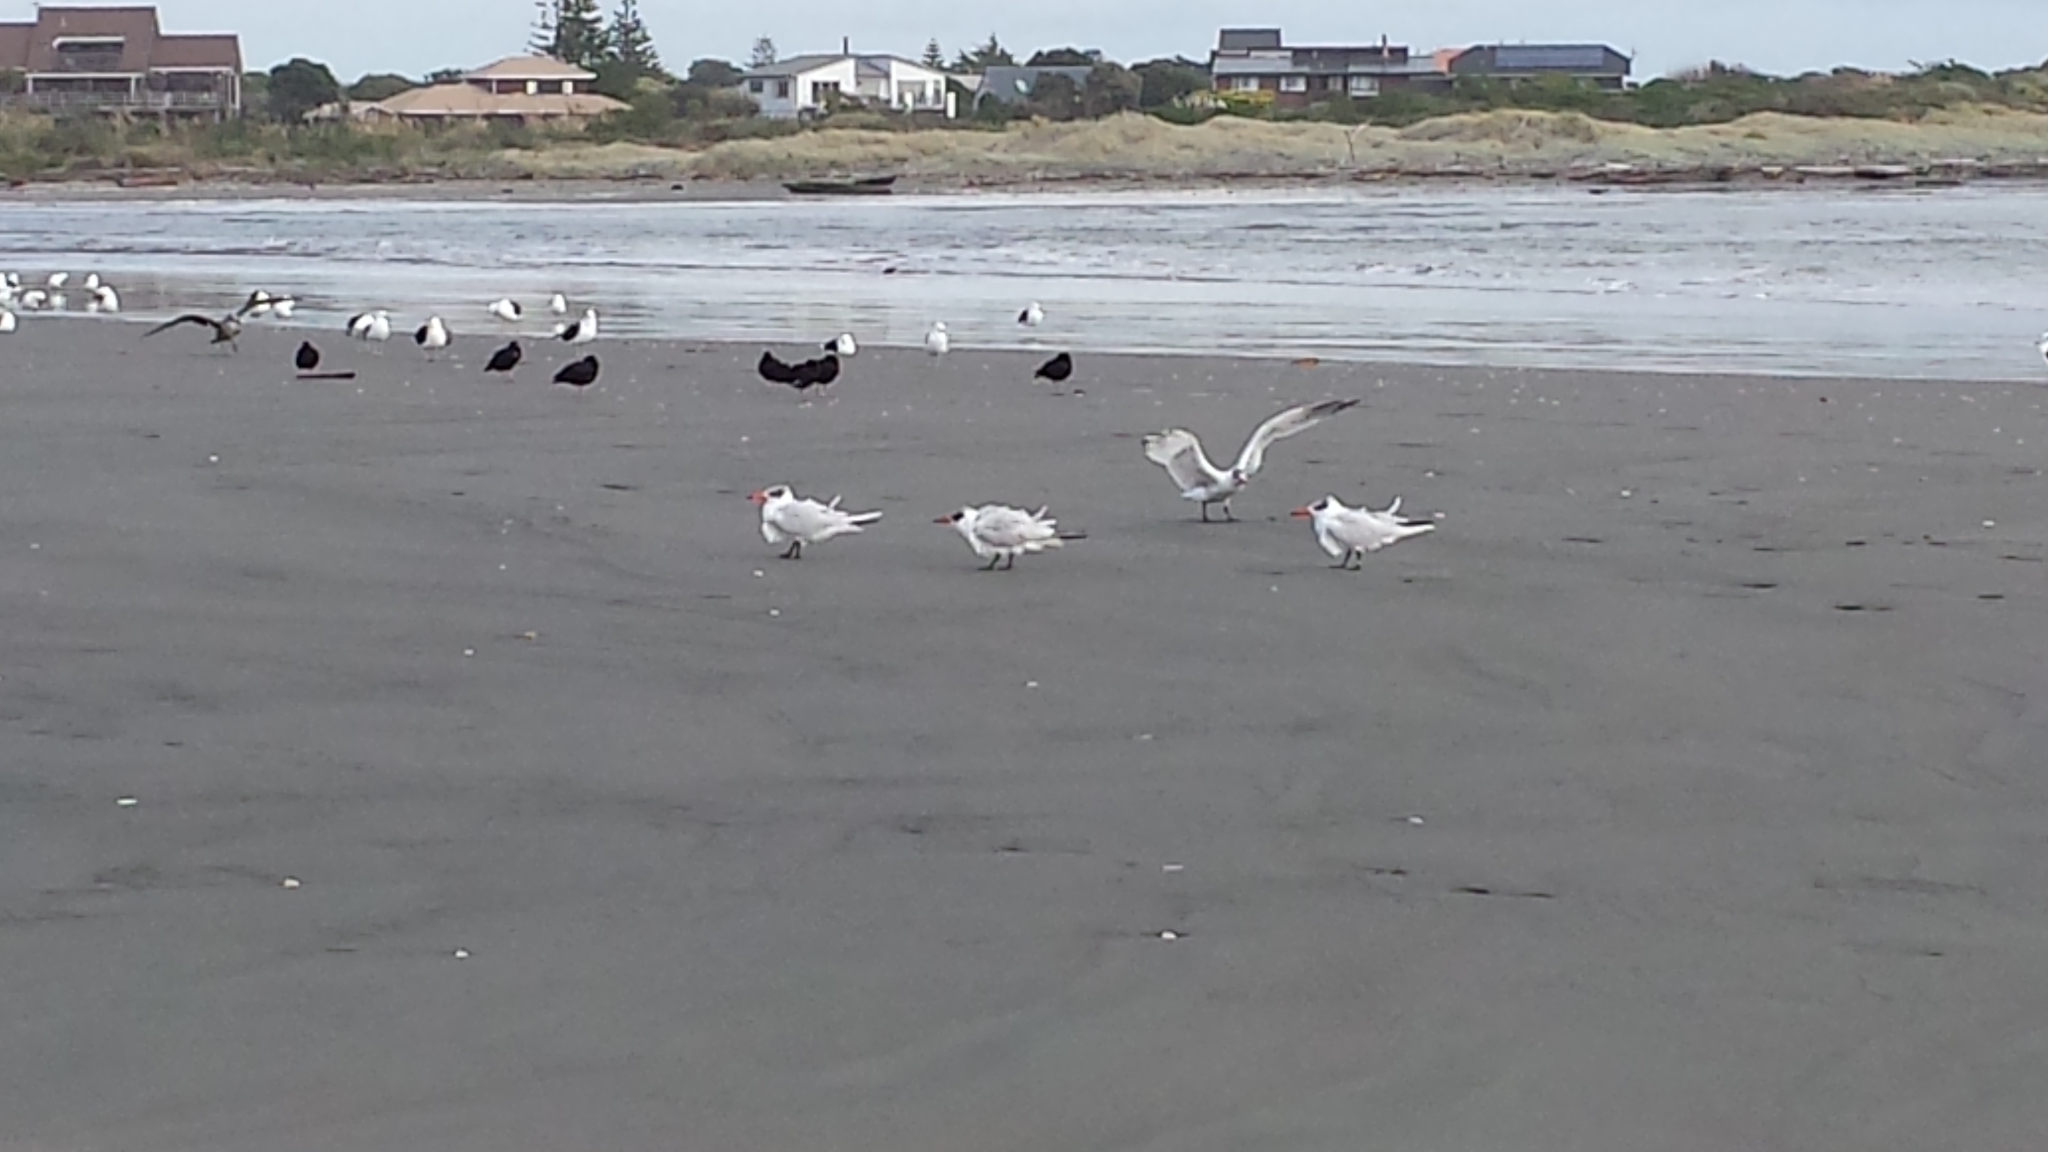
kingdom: Animalia
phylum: Chordata
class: Aves
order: Charadriiformes
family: Laridae
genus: Hydroprogne
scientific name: Hydroprogne caspia
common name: Caspian tern
